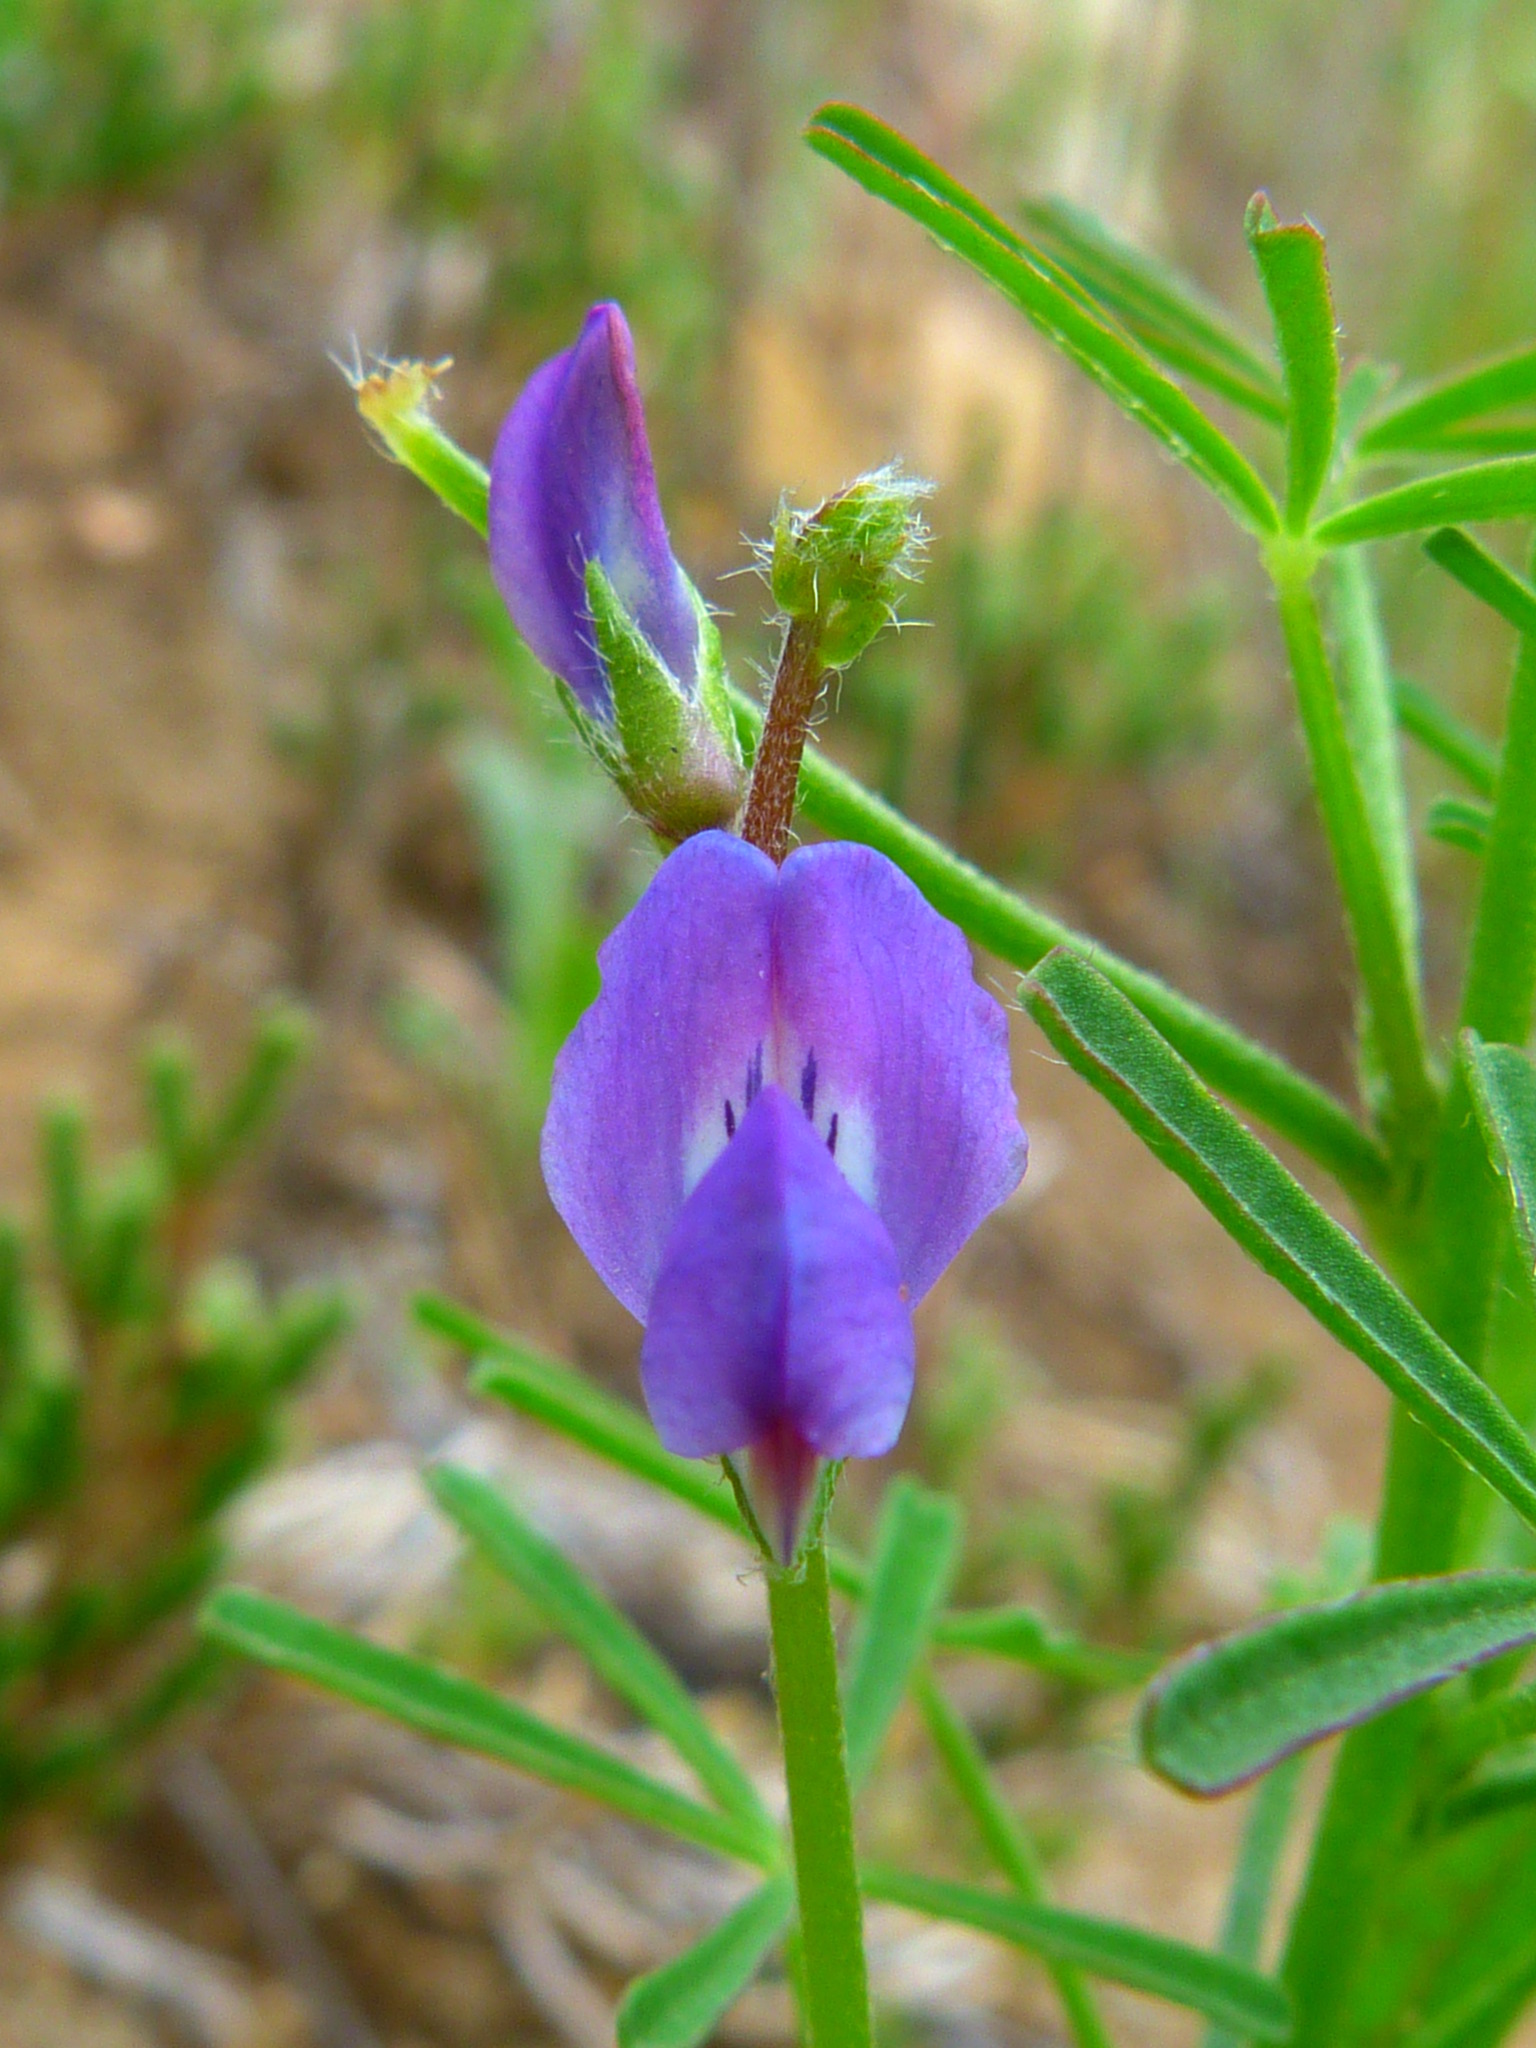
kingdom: Plantae
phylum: Tracheophyta
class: Magnoliopsida
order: Fabales
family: Fabaceae
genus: Lupinus
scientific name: Lupinus truncatus
